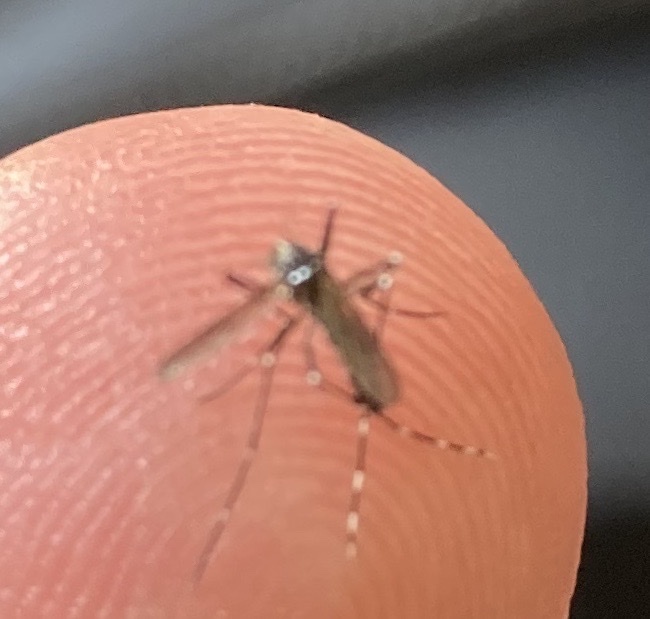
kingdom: Animalia
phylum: Arthropoda
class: Insecta
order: Diptera
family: Culicidae
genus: Aedes
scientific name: Aedes albopictus
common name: Tiger mosquito
